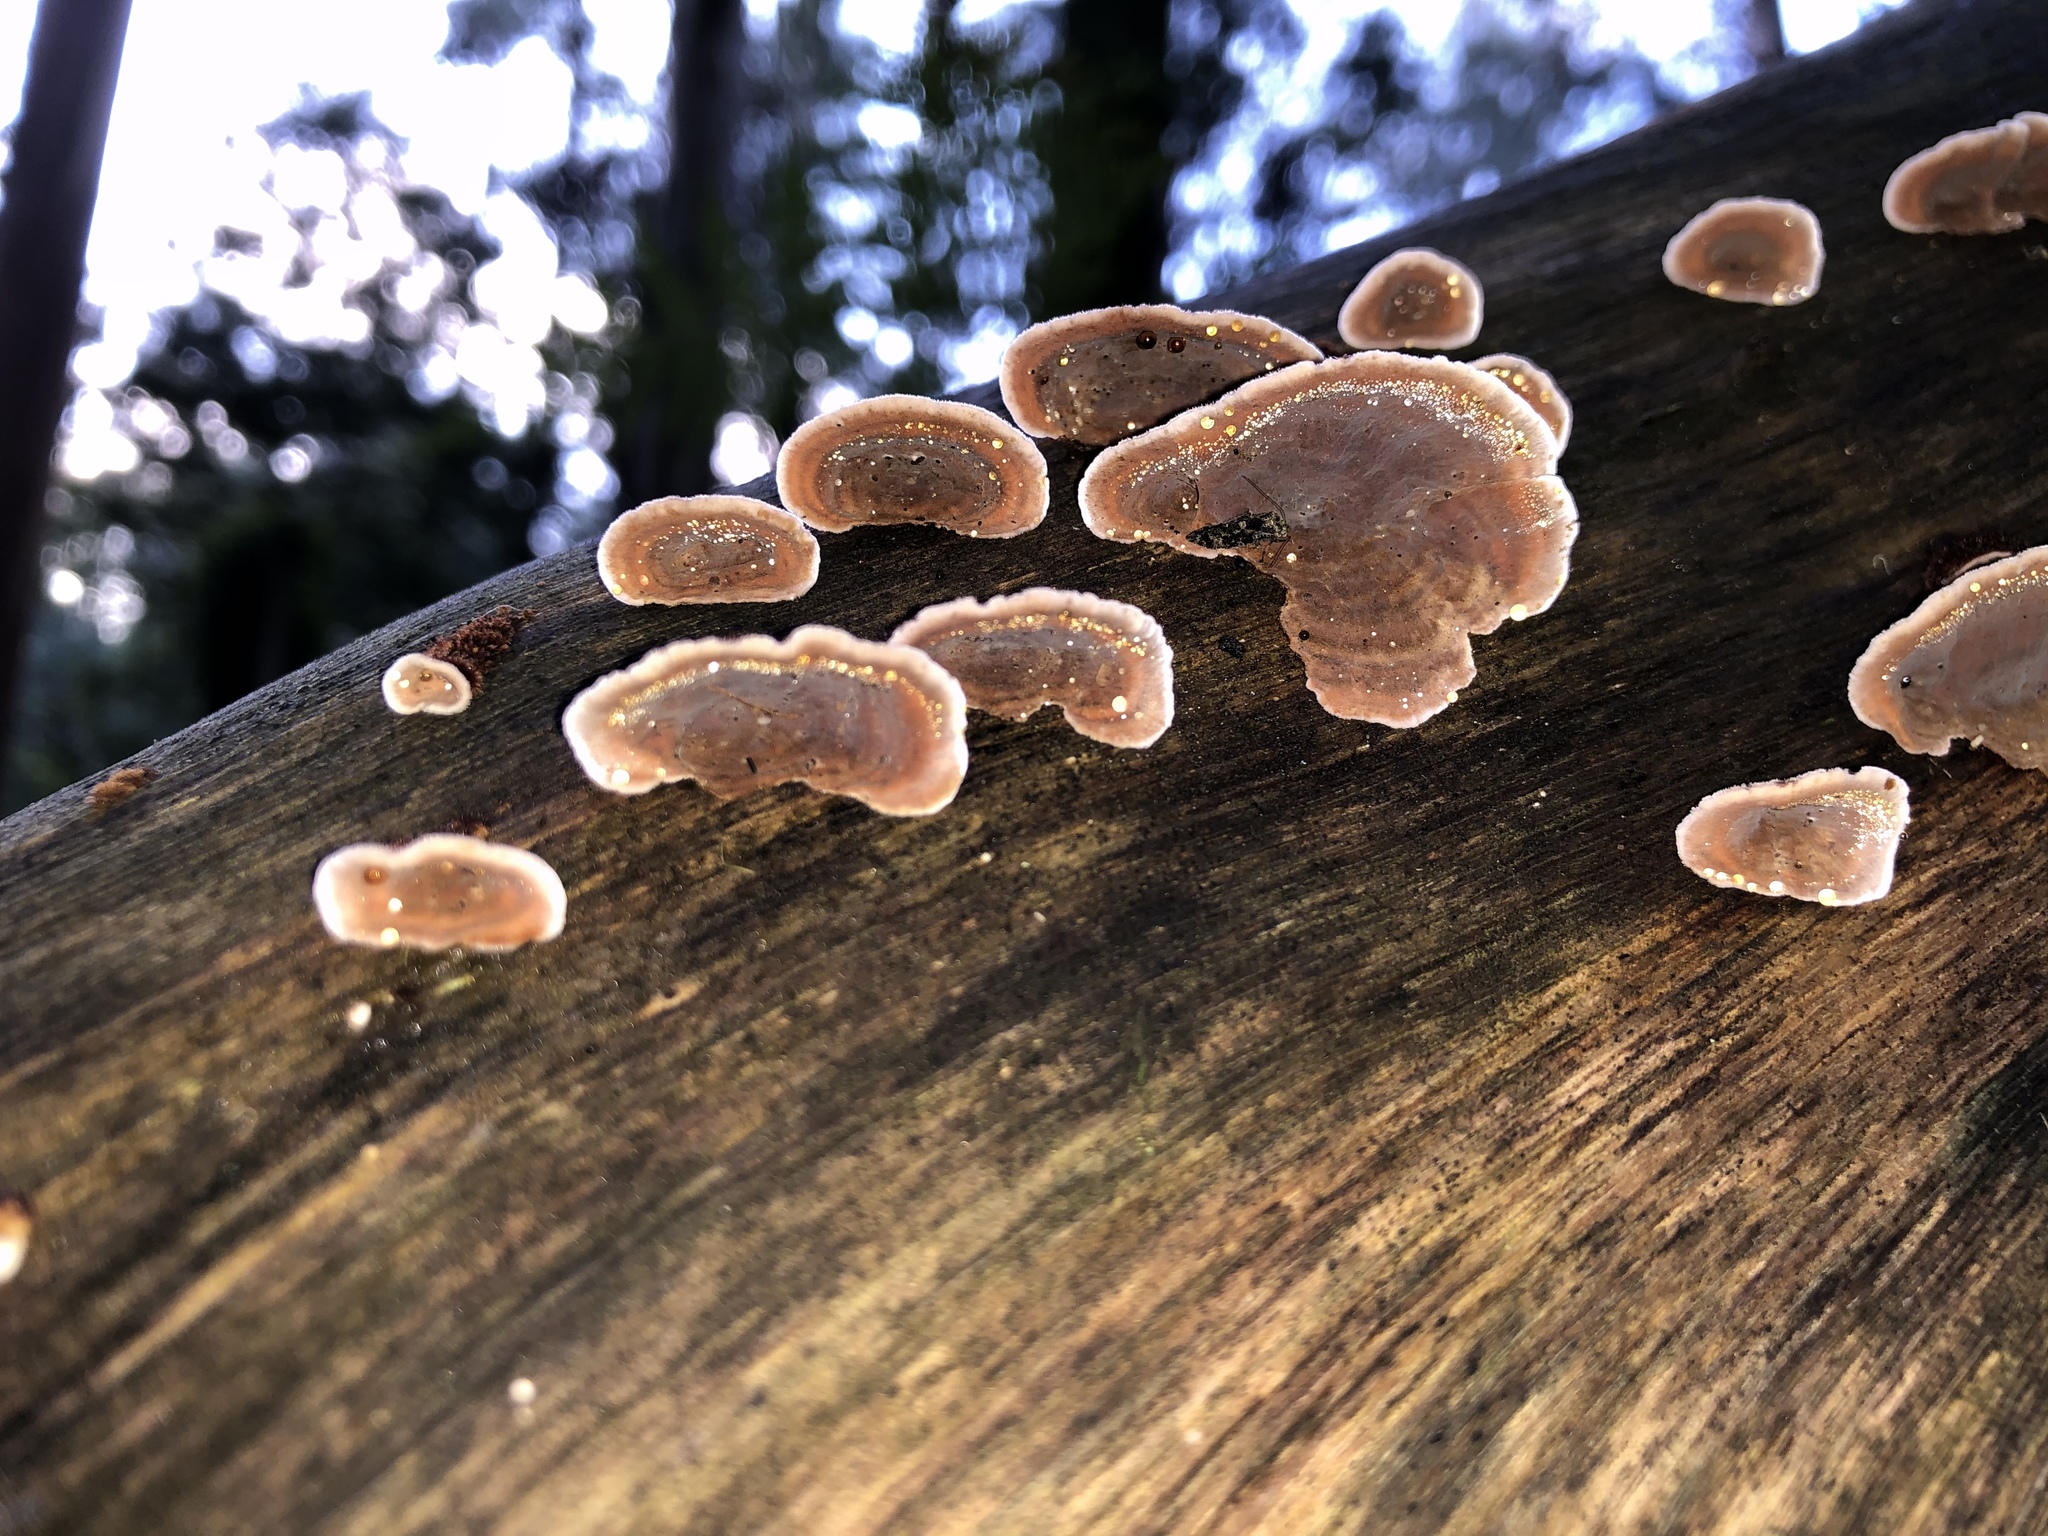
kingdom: Fungi
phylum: Basidiomycota
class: Agaricomycetes
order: Russulales
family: Stereaceae
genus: Xylobolus
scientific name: Xylobolus illudens
